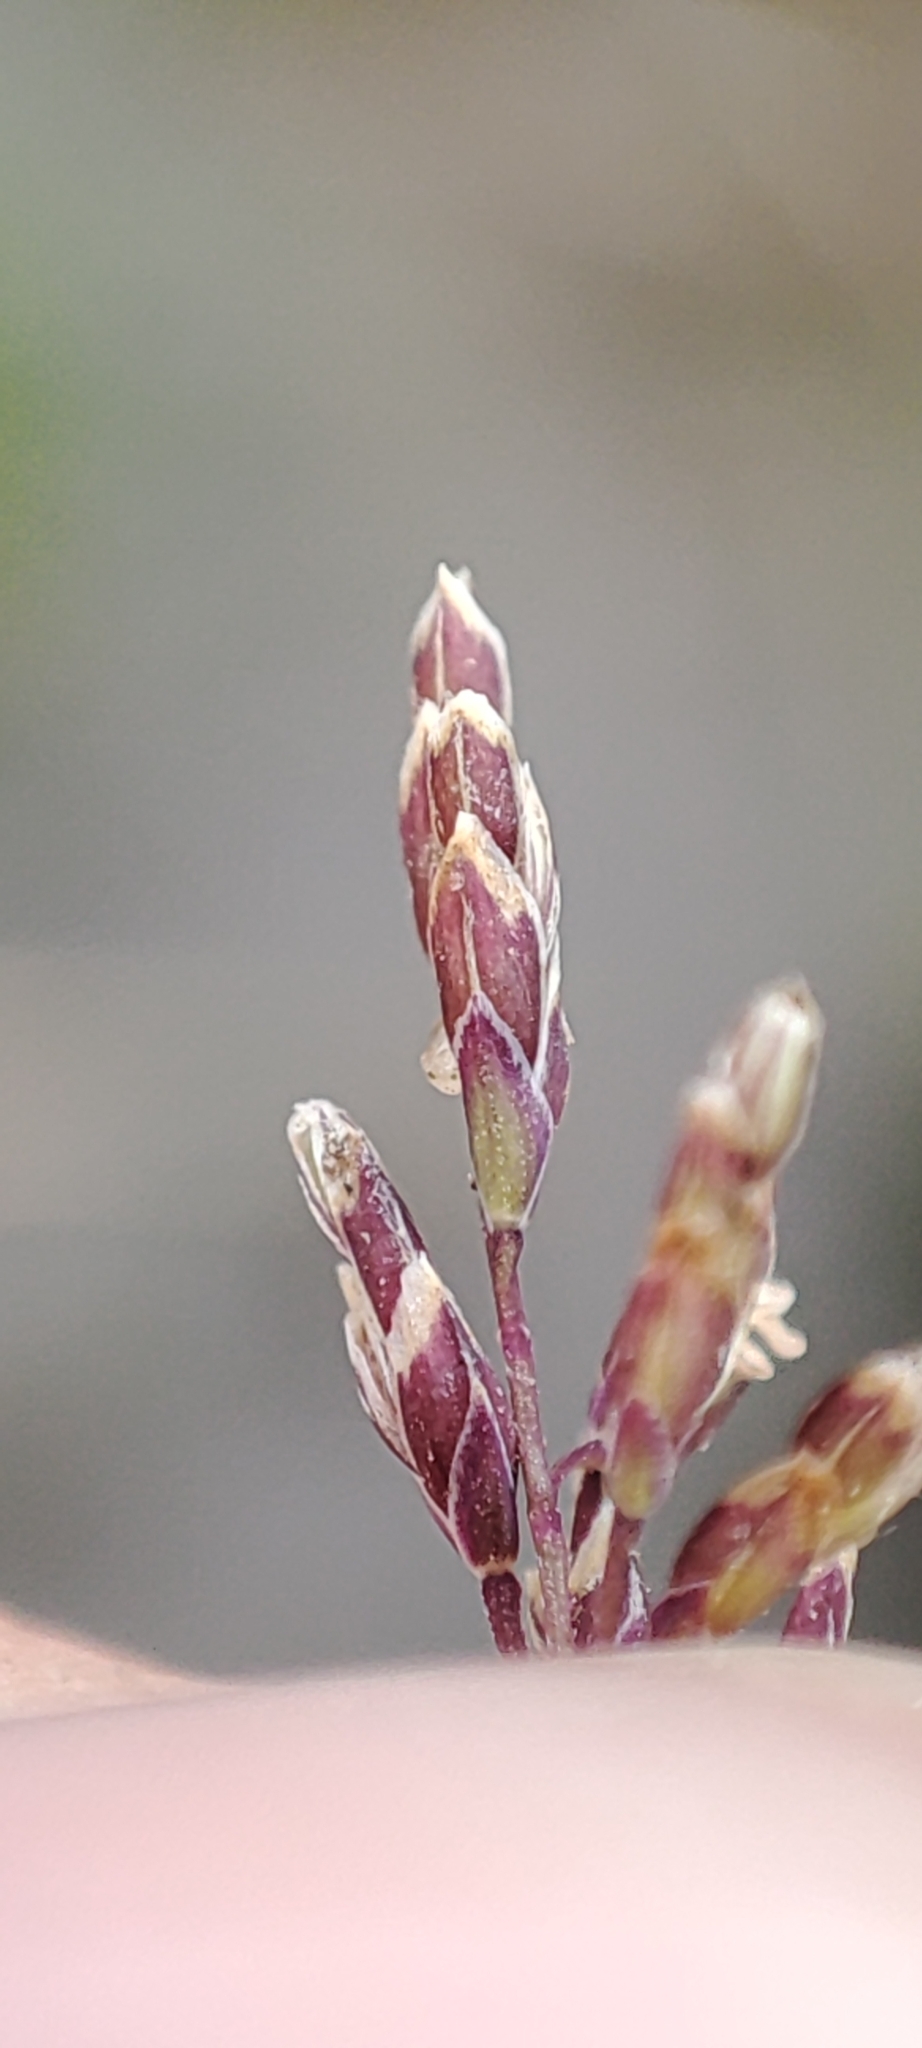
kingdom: Plantae
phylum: Tracheophyta
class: Liliopsida
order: Poales
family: Poaceae
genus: Poa
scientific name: Poa arctica
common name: Arctic bluegrass
